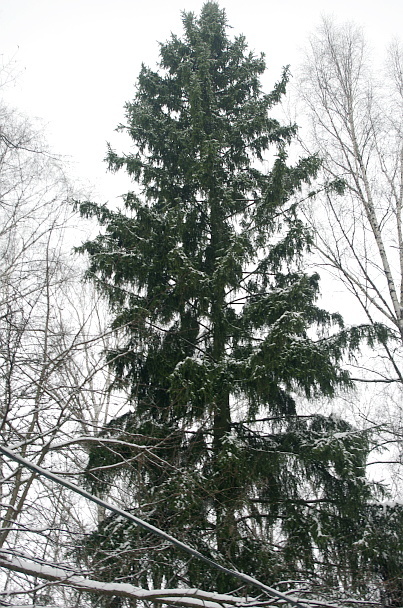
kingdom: Plantae
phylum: Tracheophyta
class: Pinopsida
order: Pinales
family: Pinaceae
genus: Picea
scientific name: Picea abies
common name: Norway spruce
